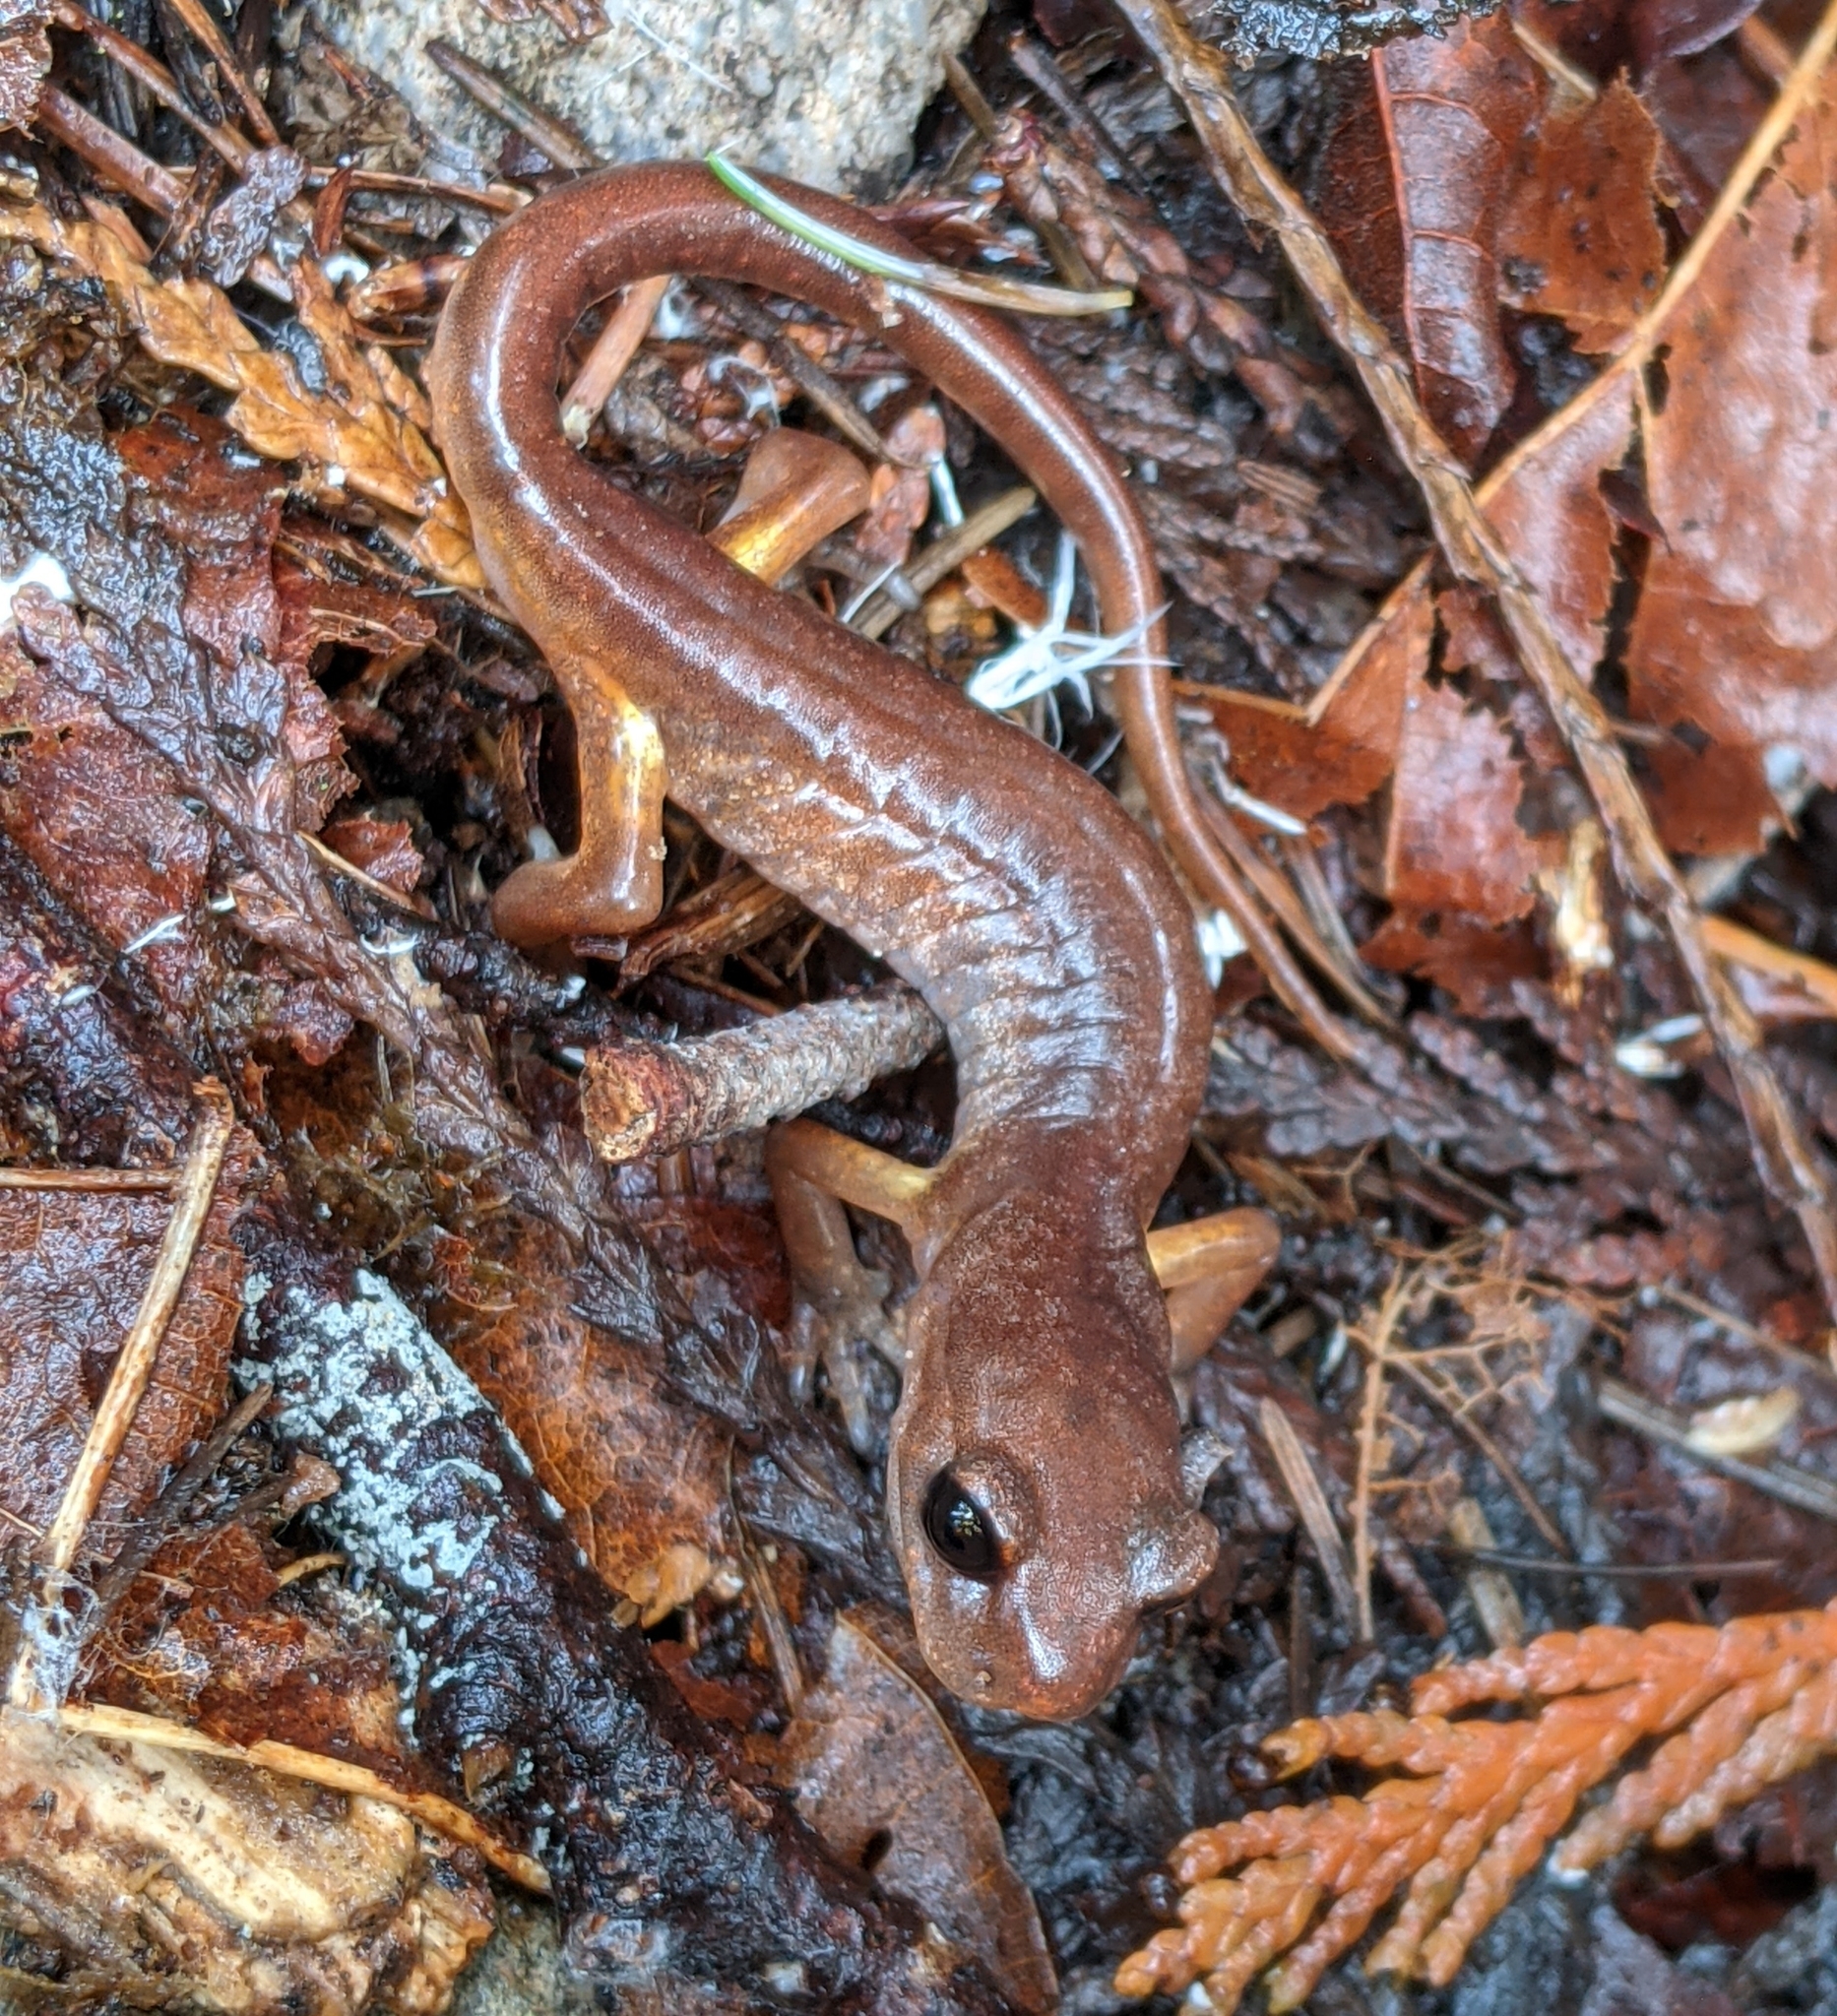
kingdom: Animalia
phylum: Chordata
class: Amphibia
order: Caudata
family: Plethodontidae
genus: Ensatina
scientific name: Ensatina eschscholtzii
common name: Ensatina
